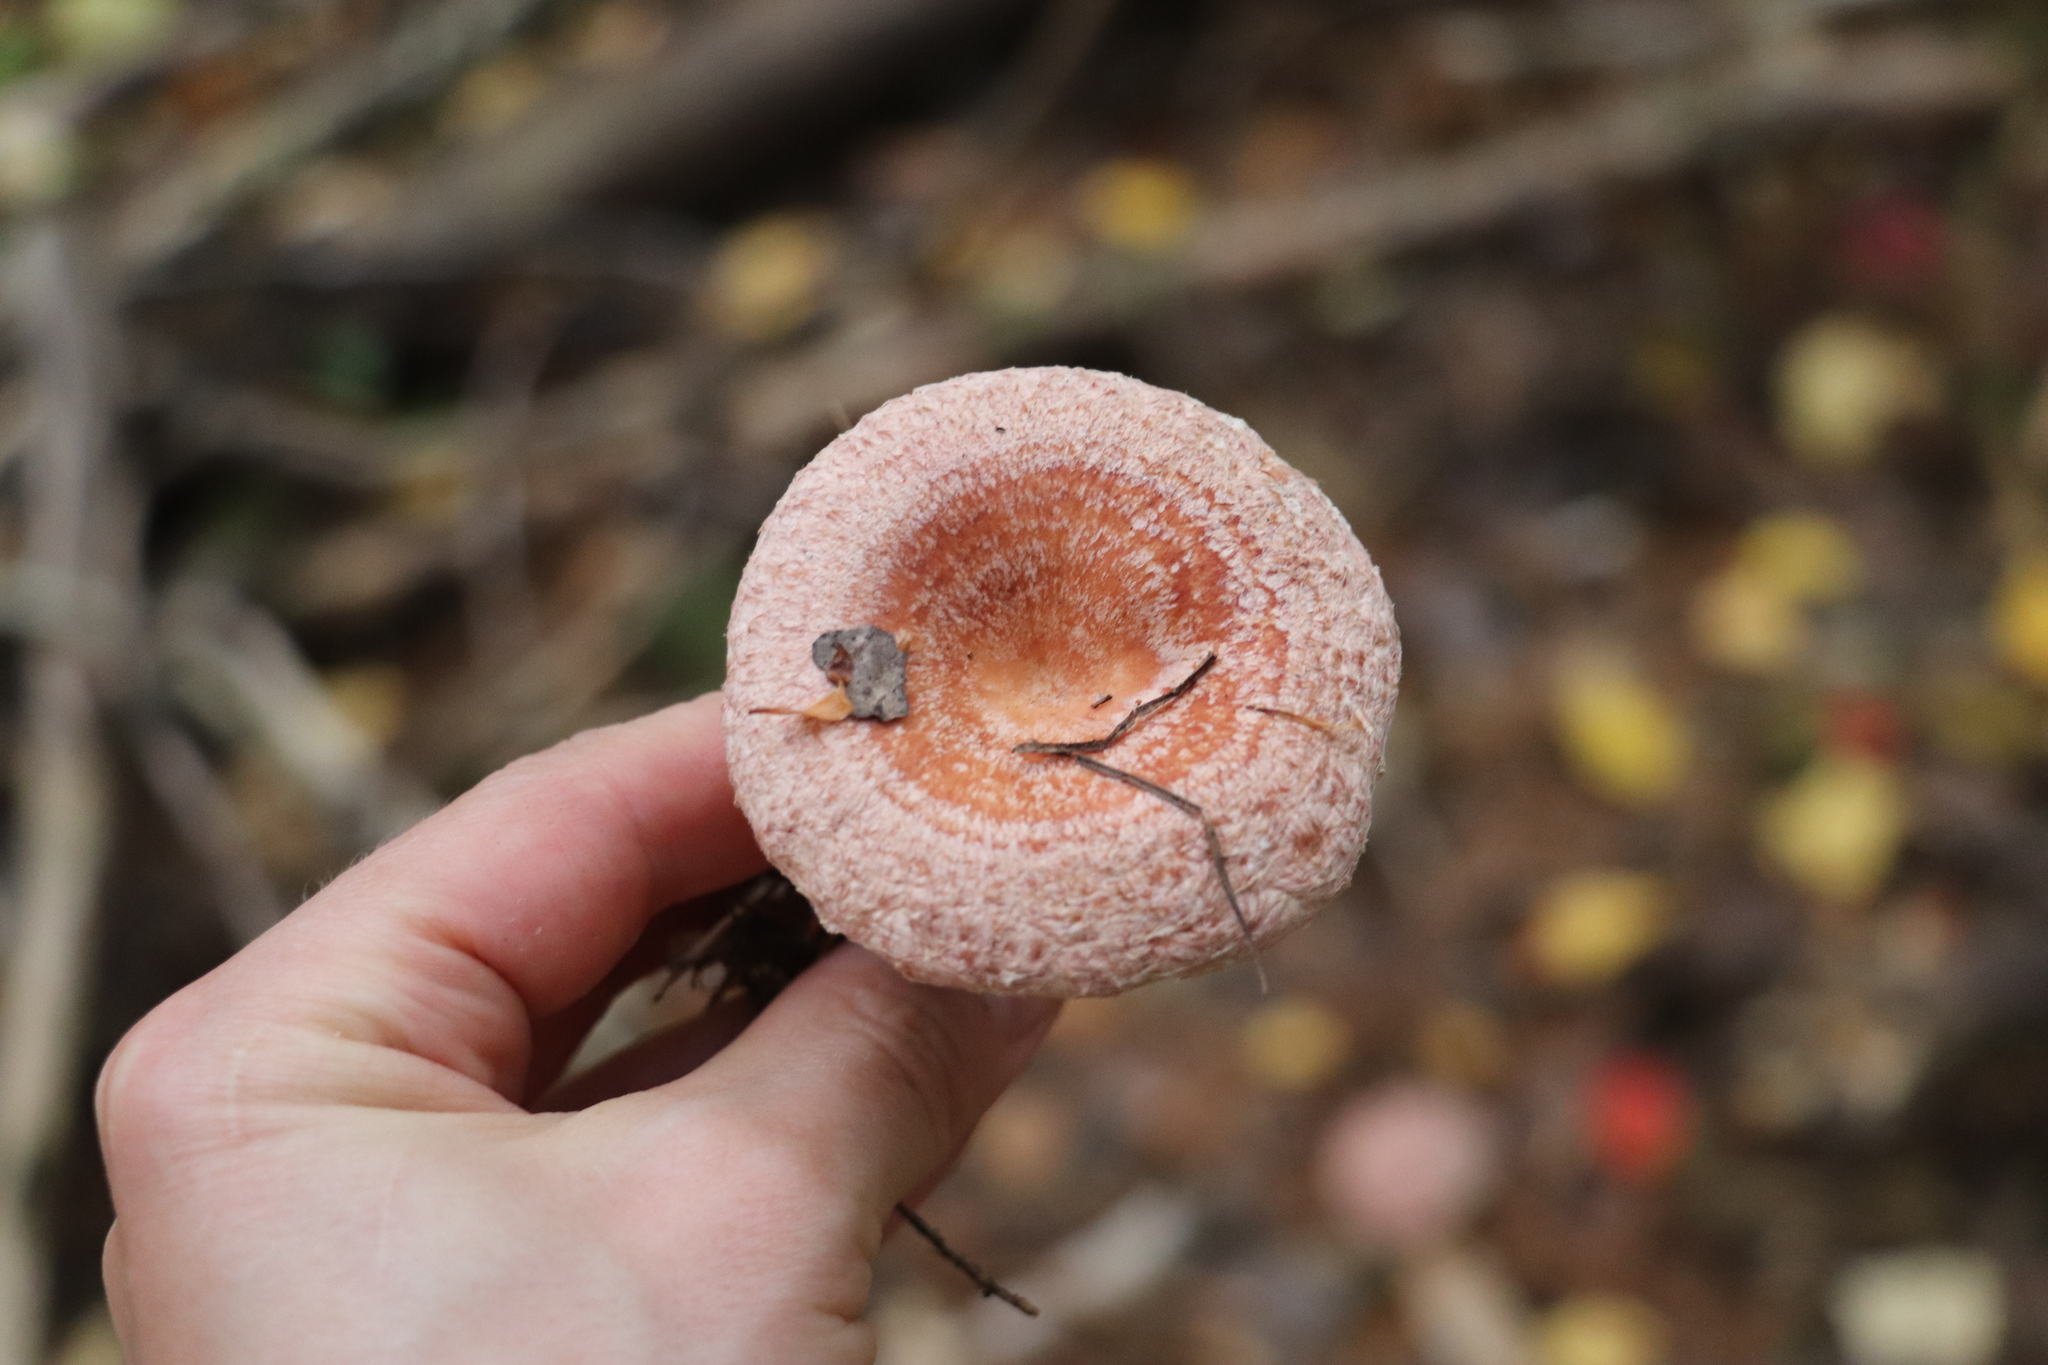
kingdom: Fungi
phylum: Basidiomycota
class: Agaricomycetes
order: Russulales
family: Russulaceae
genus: Lactarius
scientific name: Lactarius torminosus
